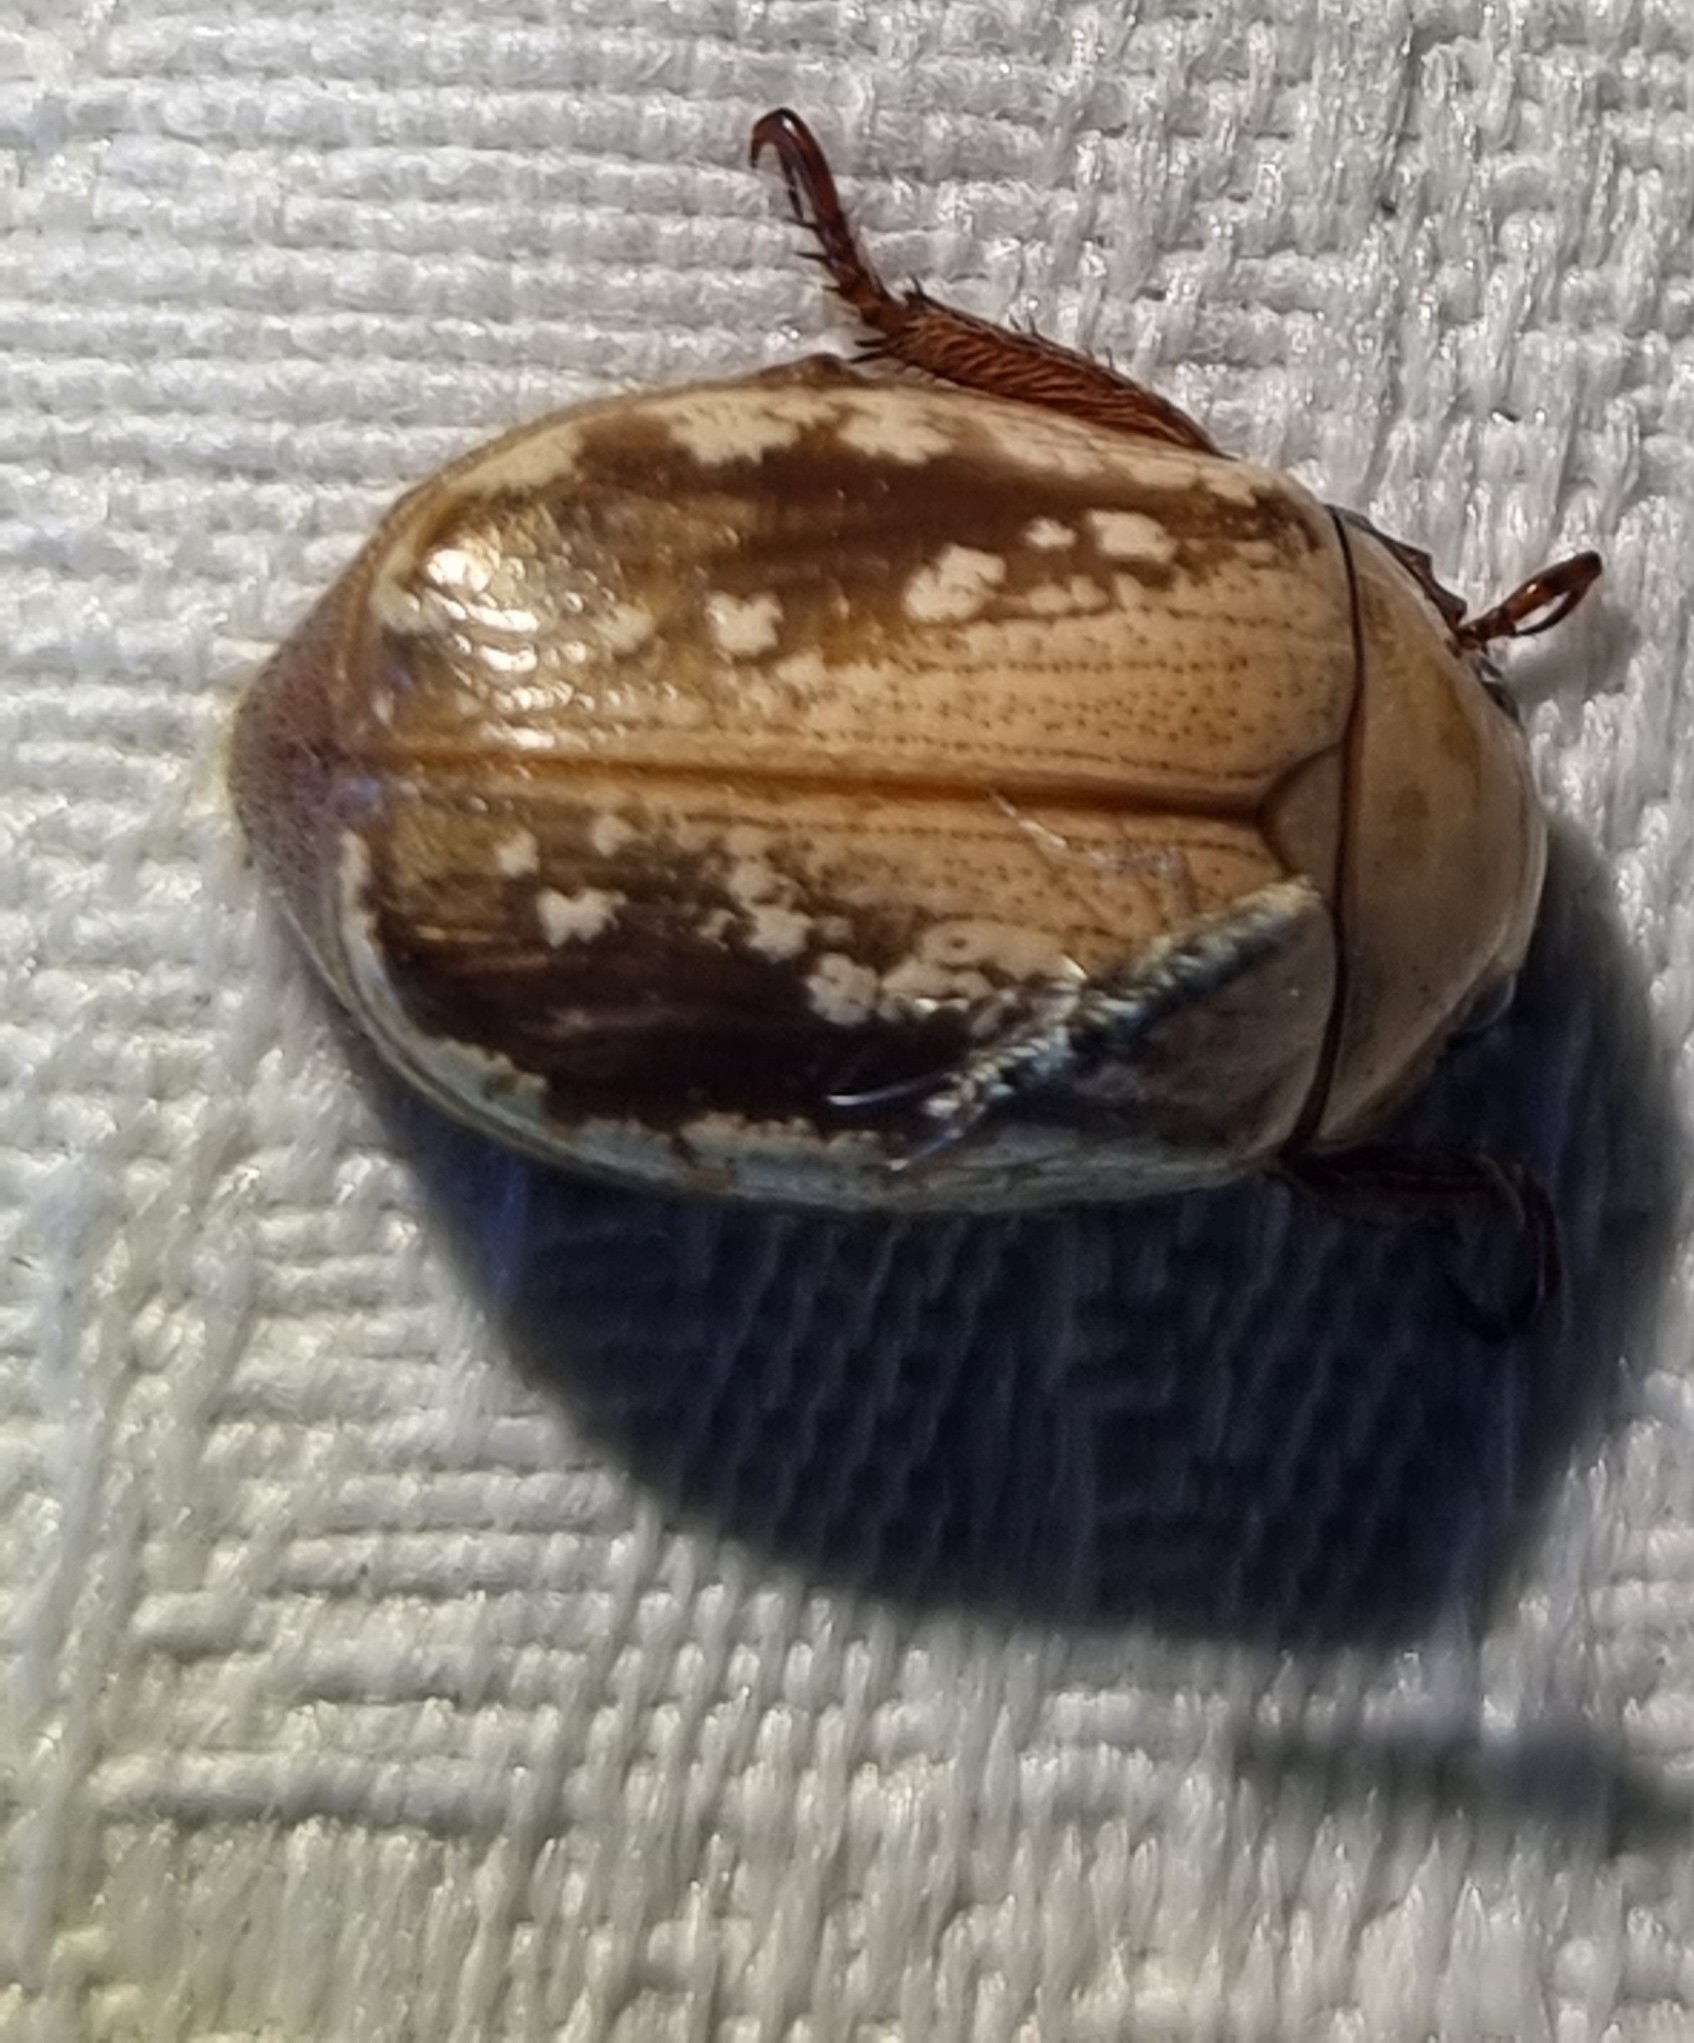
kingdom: Animalia
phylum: Arthropoda
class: Insecta
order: Coleoptera
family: Scarabaeidae
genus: Anoplognathus
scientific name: Anoplognathus concolor
